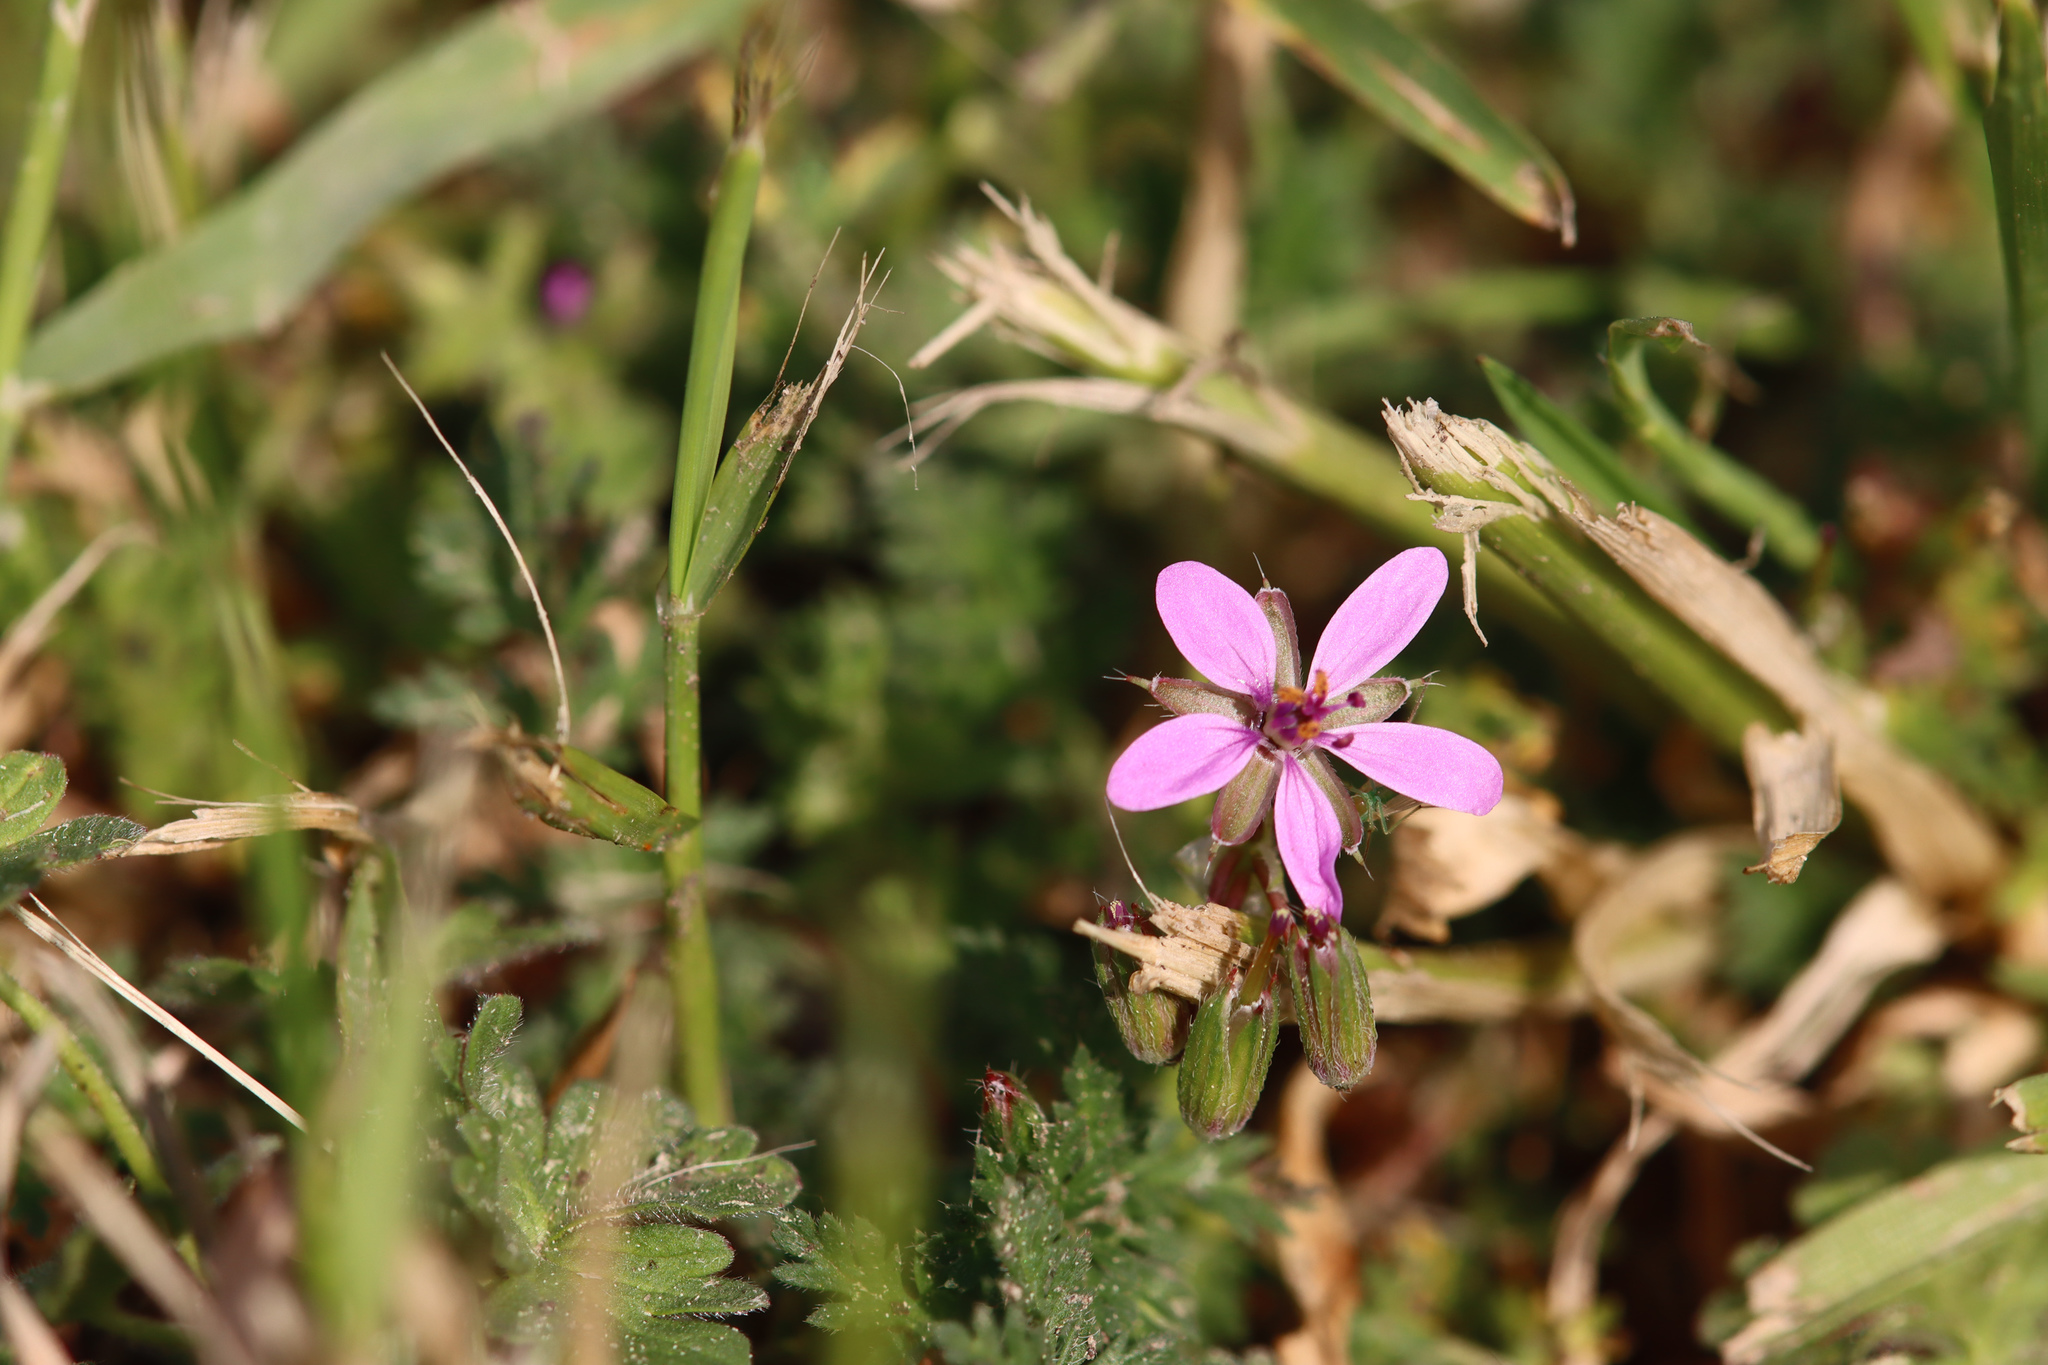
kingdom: Plantae
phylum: Tracheophyta
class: Magnoliopsida
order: Geraniales
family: Geraniaceae
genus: Erodium
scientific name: Erodium cicutarium
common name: Common stork's-bill
